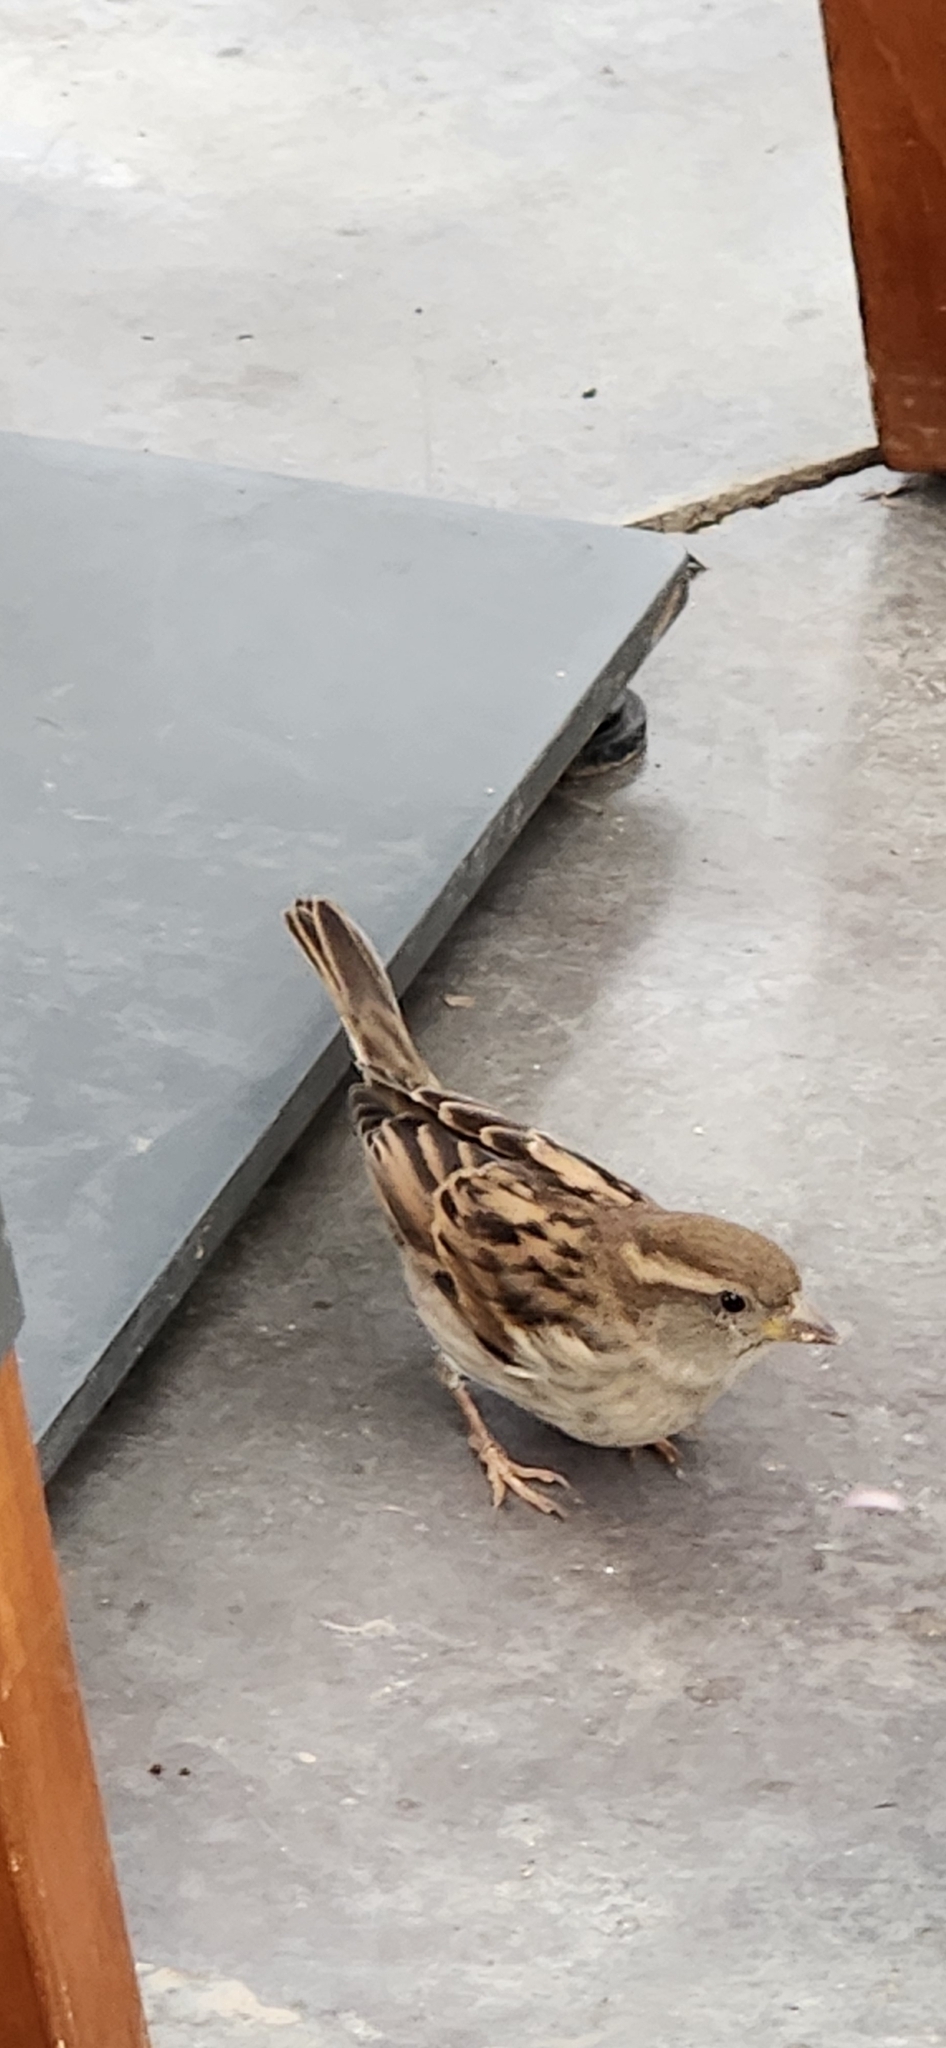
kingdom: Animalia
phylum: Chordata
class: Aves
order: Passeriformes
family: Passeridae
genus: Passer
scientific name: Passer domesticus
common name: House sparrow
